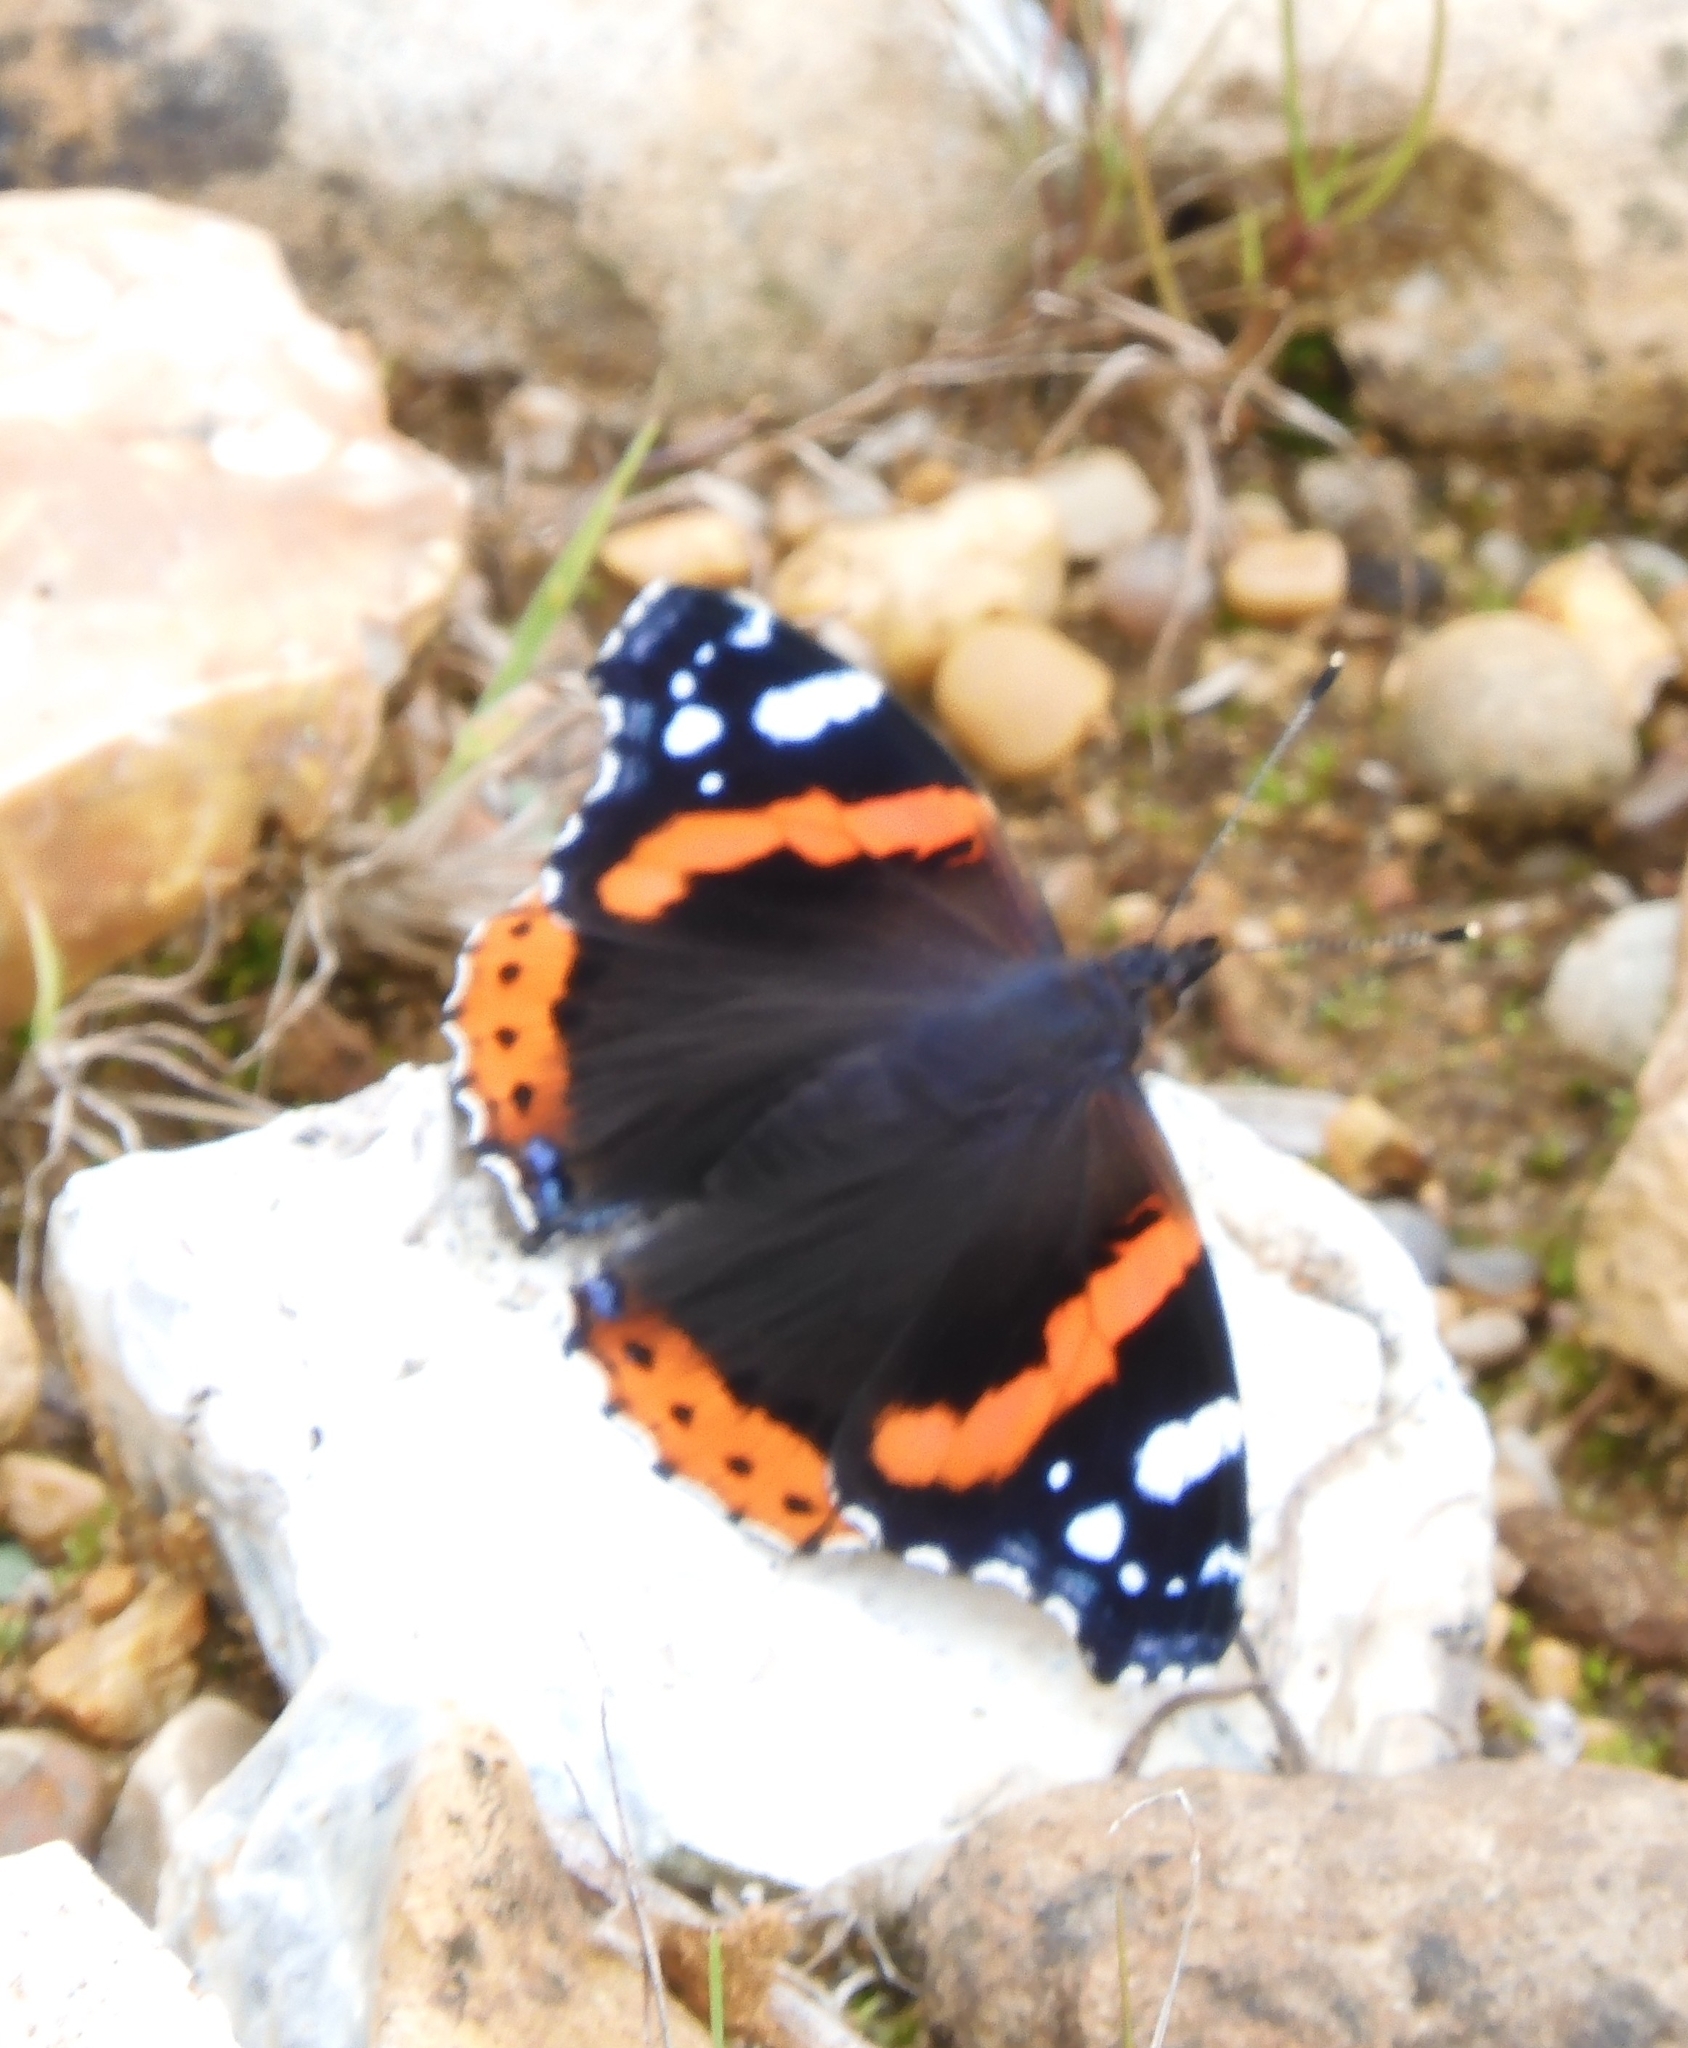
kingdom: Animalia
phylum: Arthropoda
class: Insecta
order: Lepidoptera
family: Nymphalidae
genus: Vanessa
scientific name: Vanessa atalanta
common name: Red admiral
